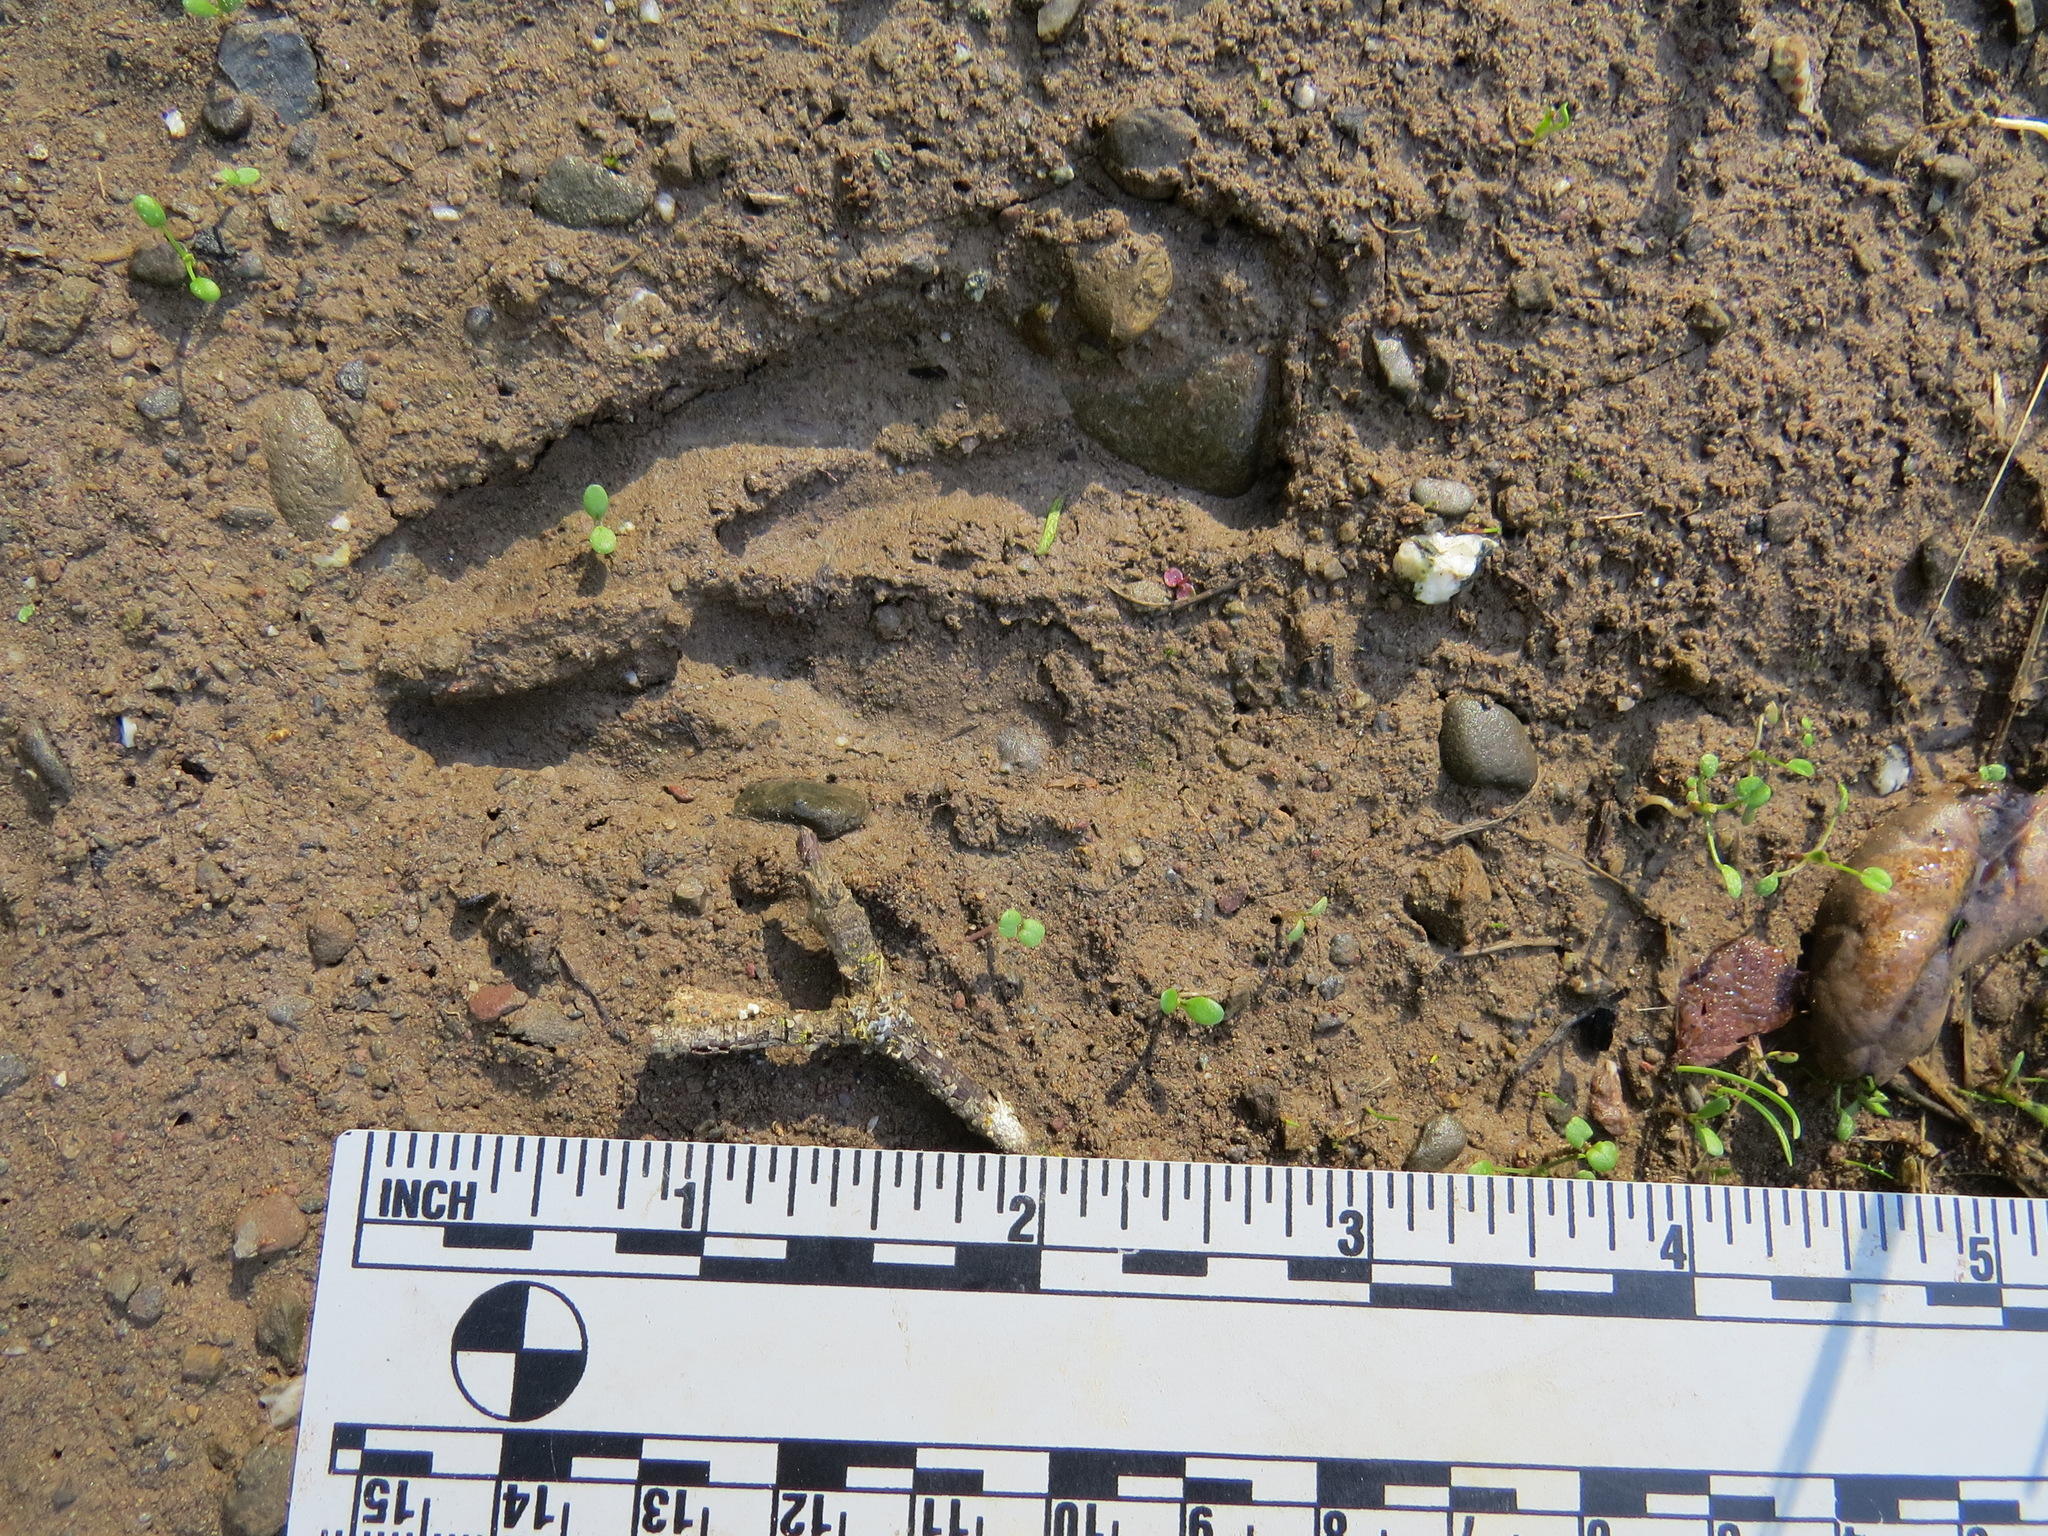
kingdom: Animalia
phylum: Chordata
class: Mammalia
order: Artiodactyla
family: Cervidae
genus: Odocoileus
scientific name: Odocoileus hemionus
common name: Mule deer
